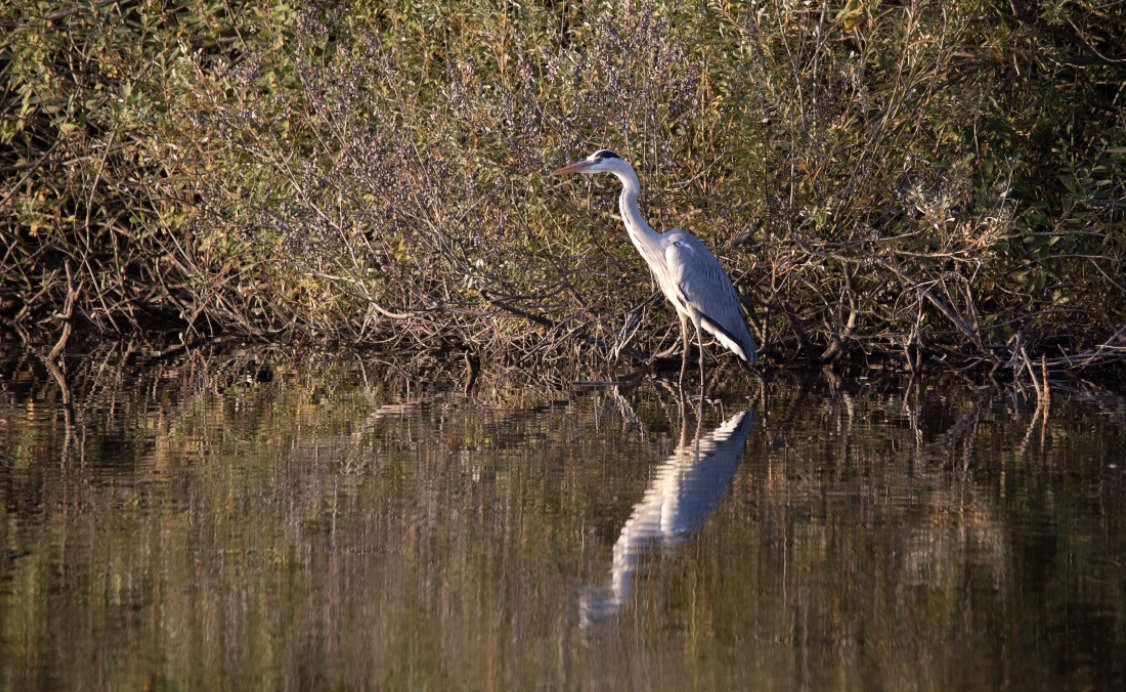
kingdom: Animalia
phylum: Chordata
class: Aves
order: Pelecaniformes
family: Ardeidae
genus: Ardea
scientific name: Ardea cinerea
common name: Grey heron
